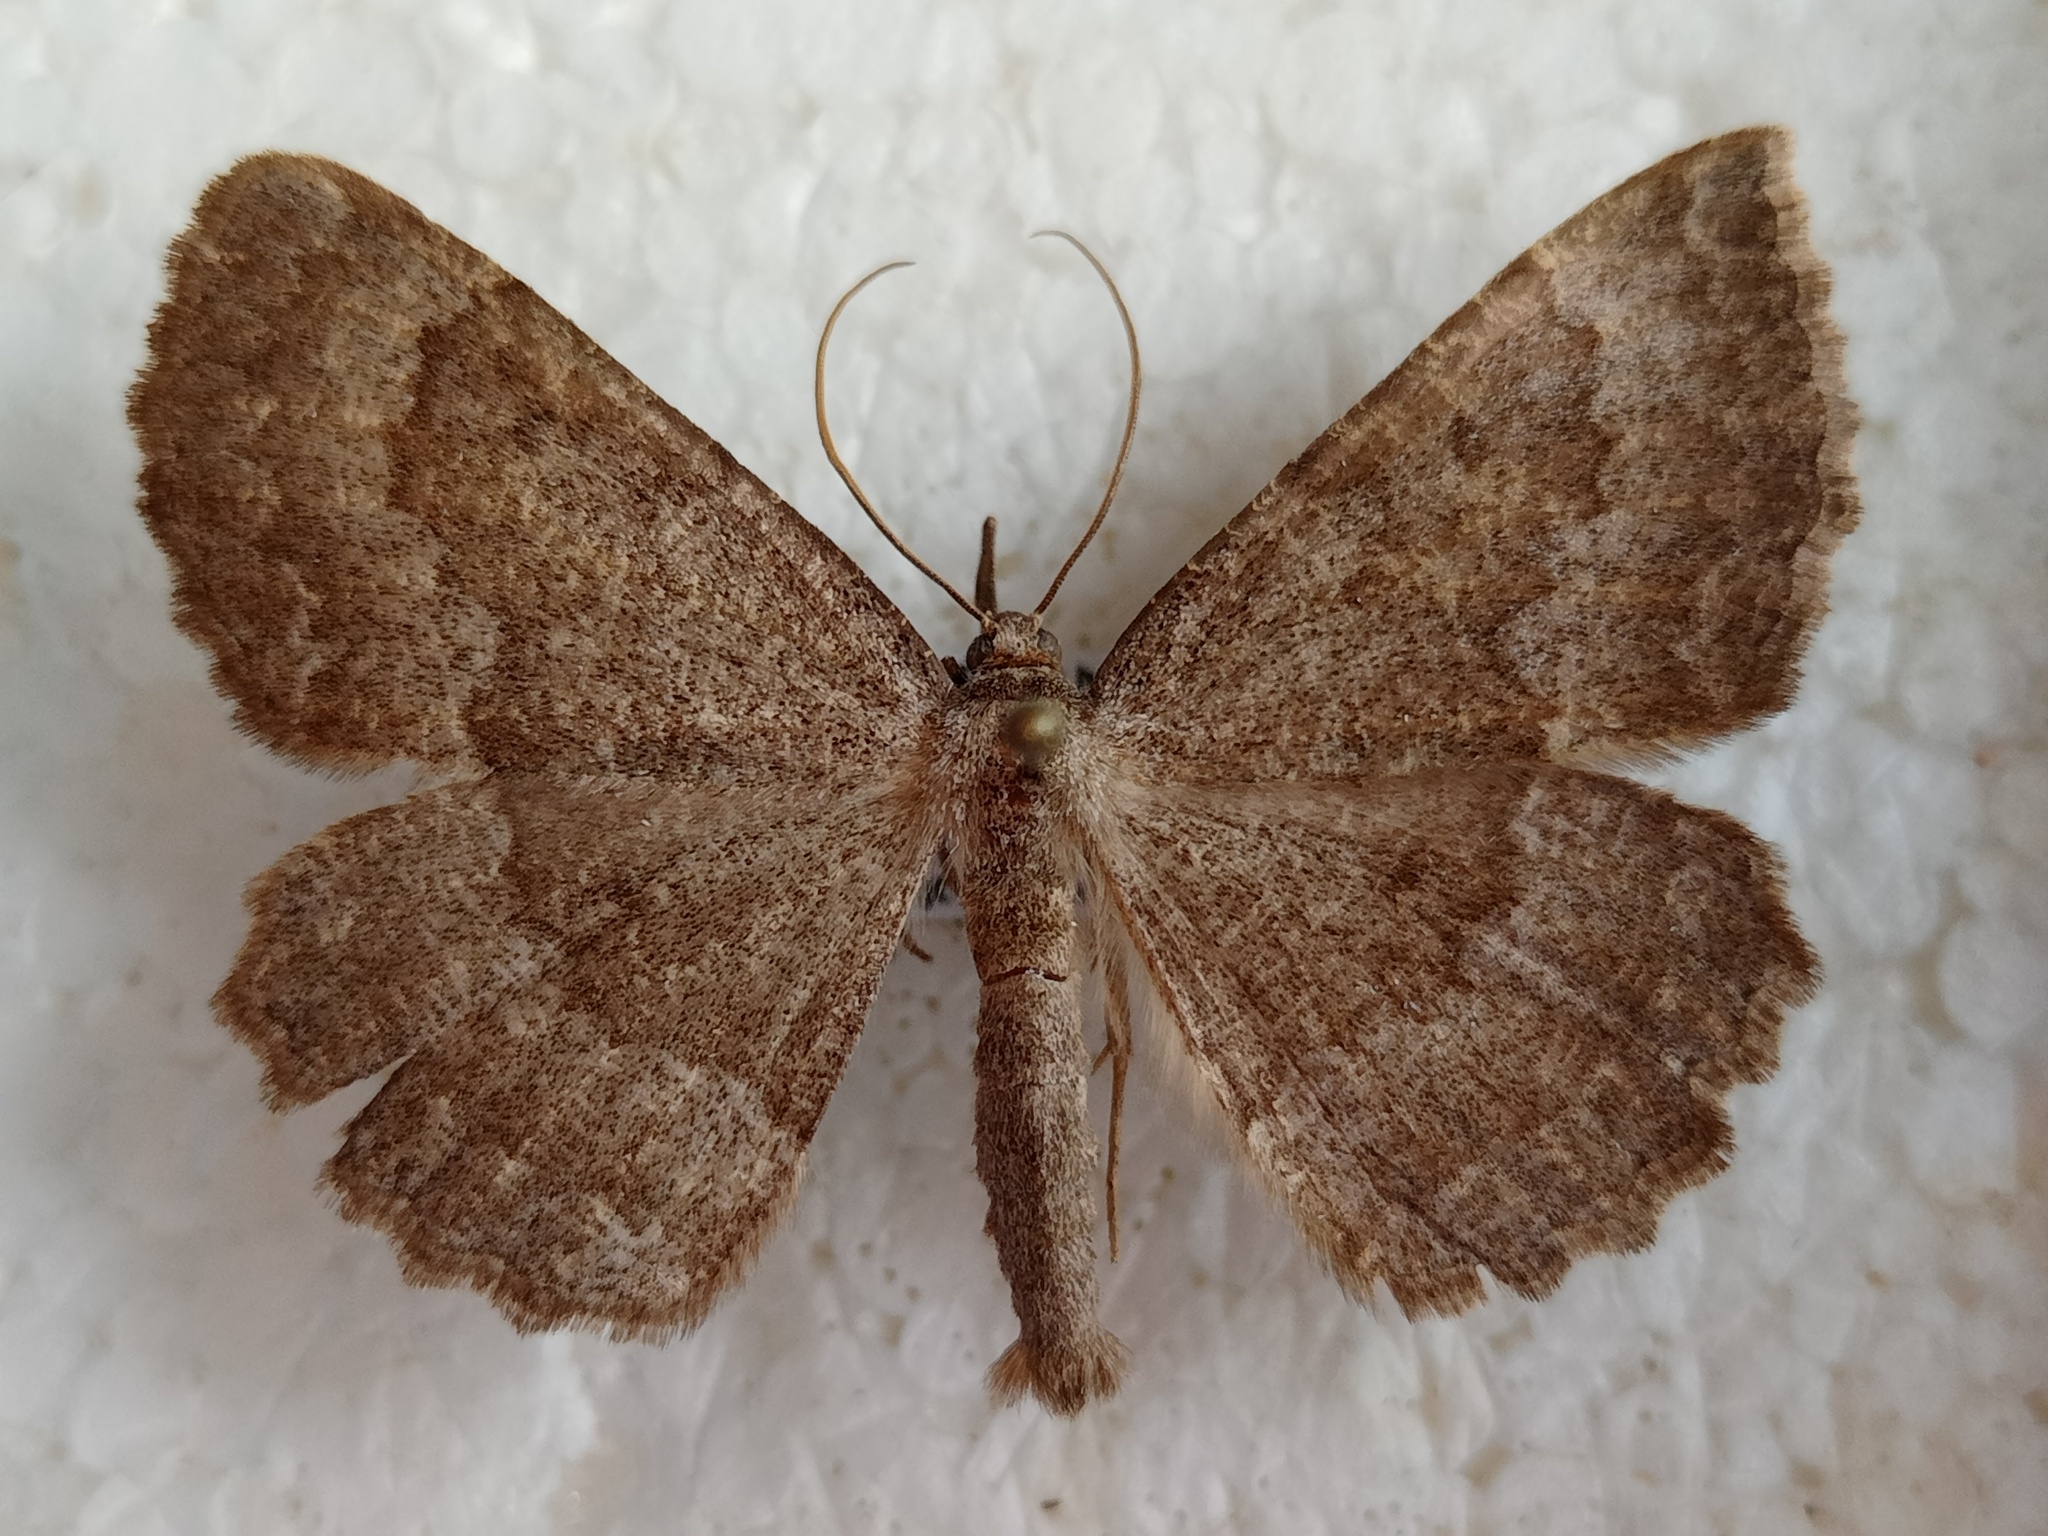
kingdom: Animalia
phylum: Arthropoda
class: Insecta
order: Lepidoptera
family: Geometridae
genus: Gnophos
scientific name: Gnophos furvata
